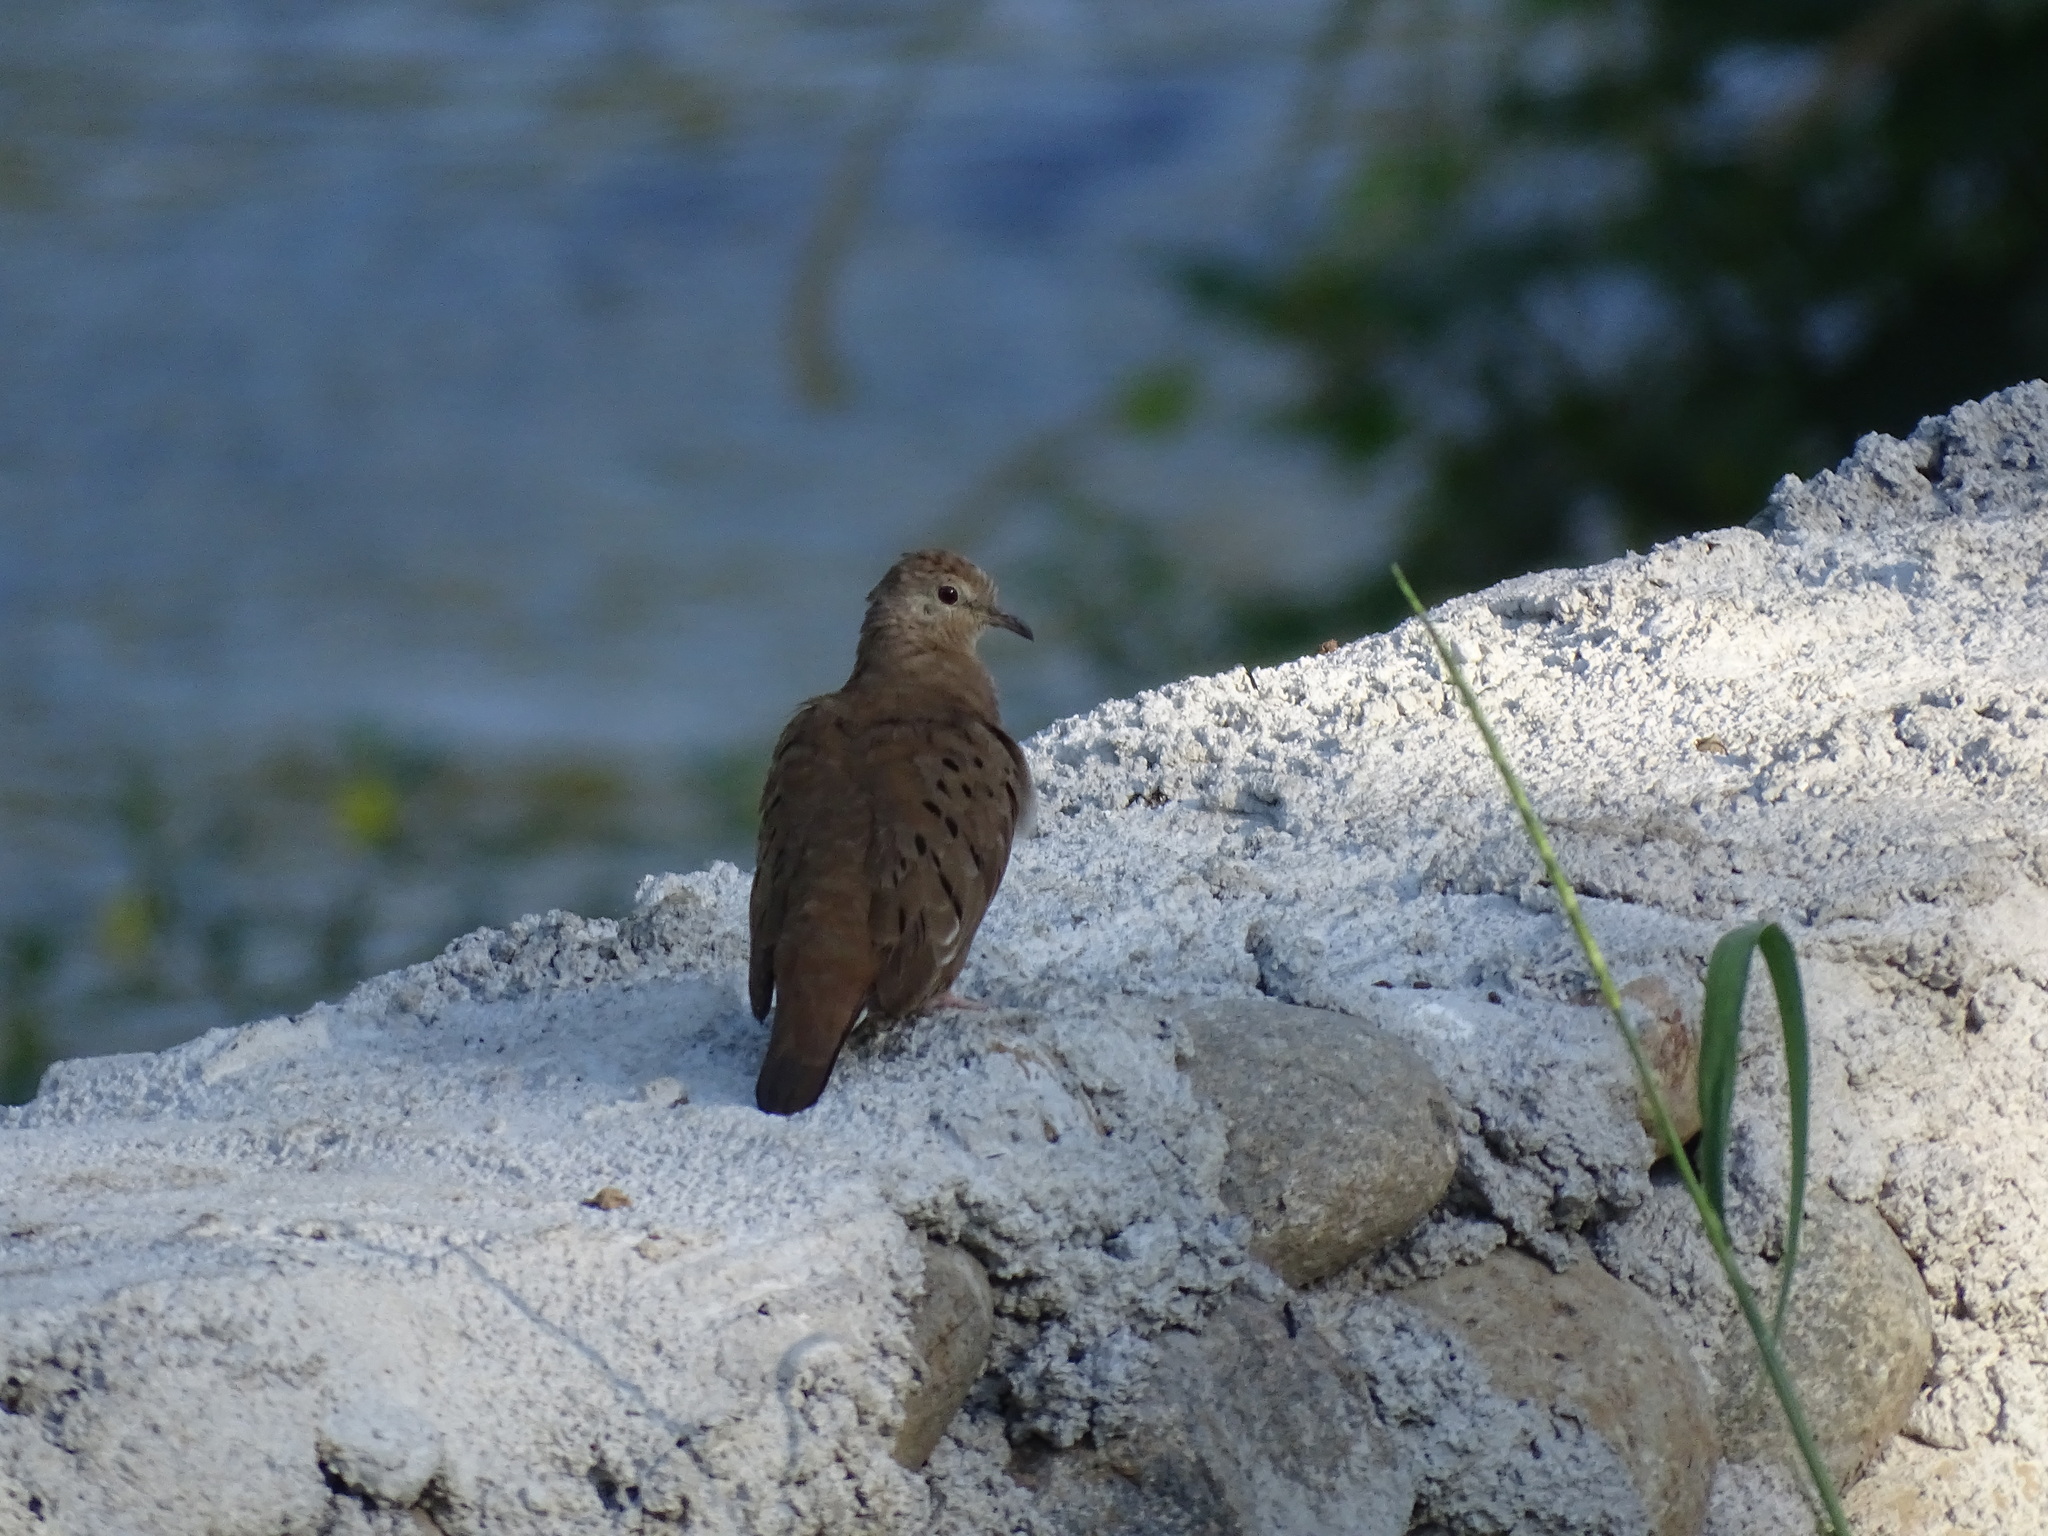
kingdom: Animalia
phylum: Chordata
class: Aves
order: Columbiformes
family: Columbidae
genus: Columbina
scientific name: Columbina talpacoti
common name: Ruddy ground dove
